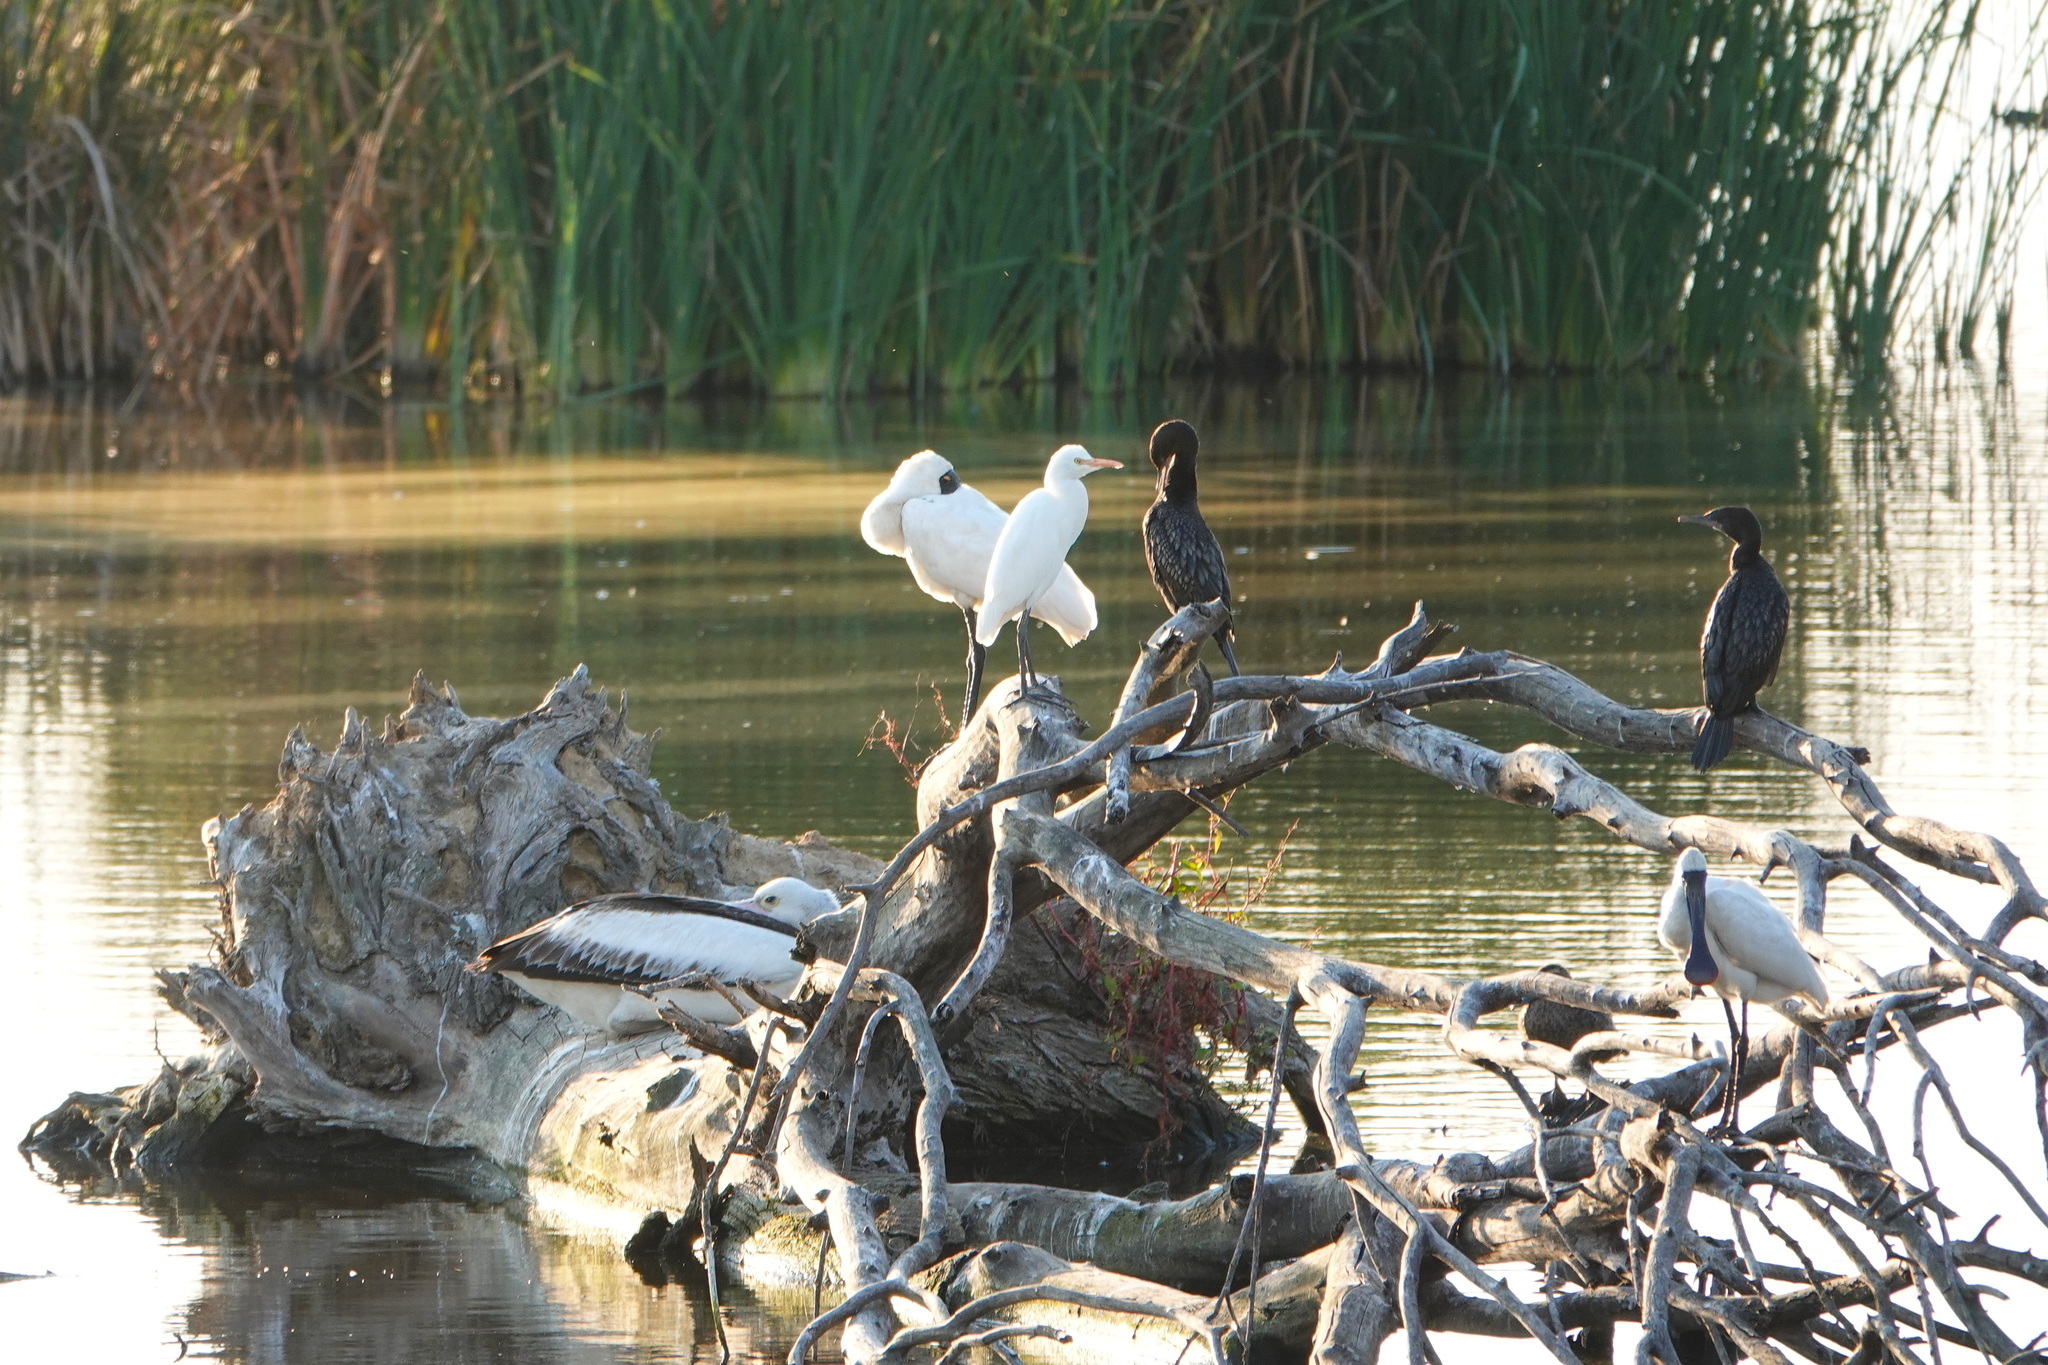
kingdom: Animalia
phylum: Chordata
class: Aves
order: Pelecaniformes
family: Threskiornithidae
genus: Platalea
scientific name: Platalea regia
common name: Royal spoonbill
